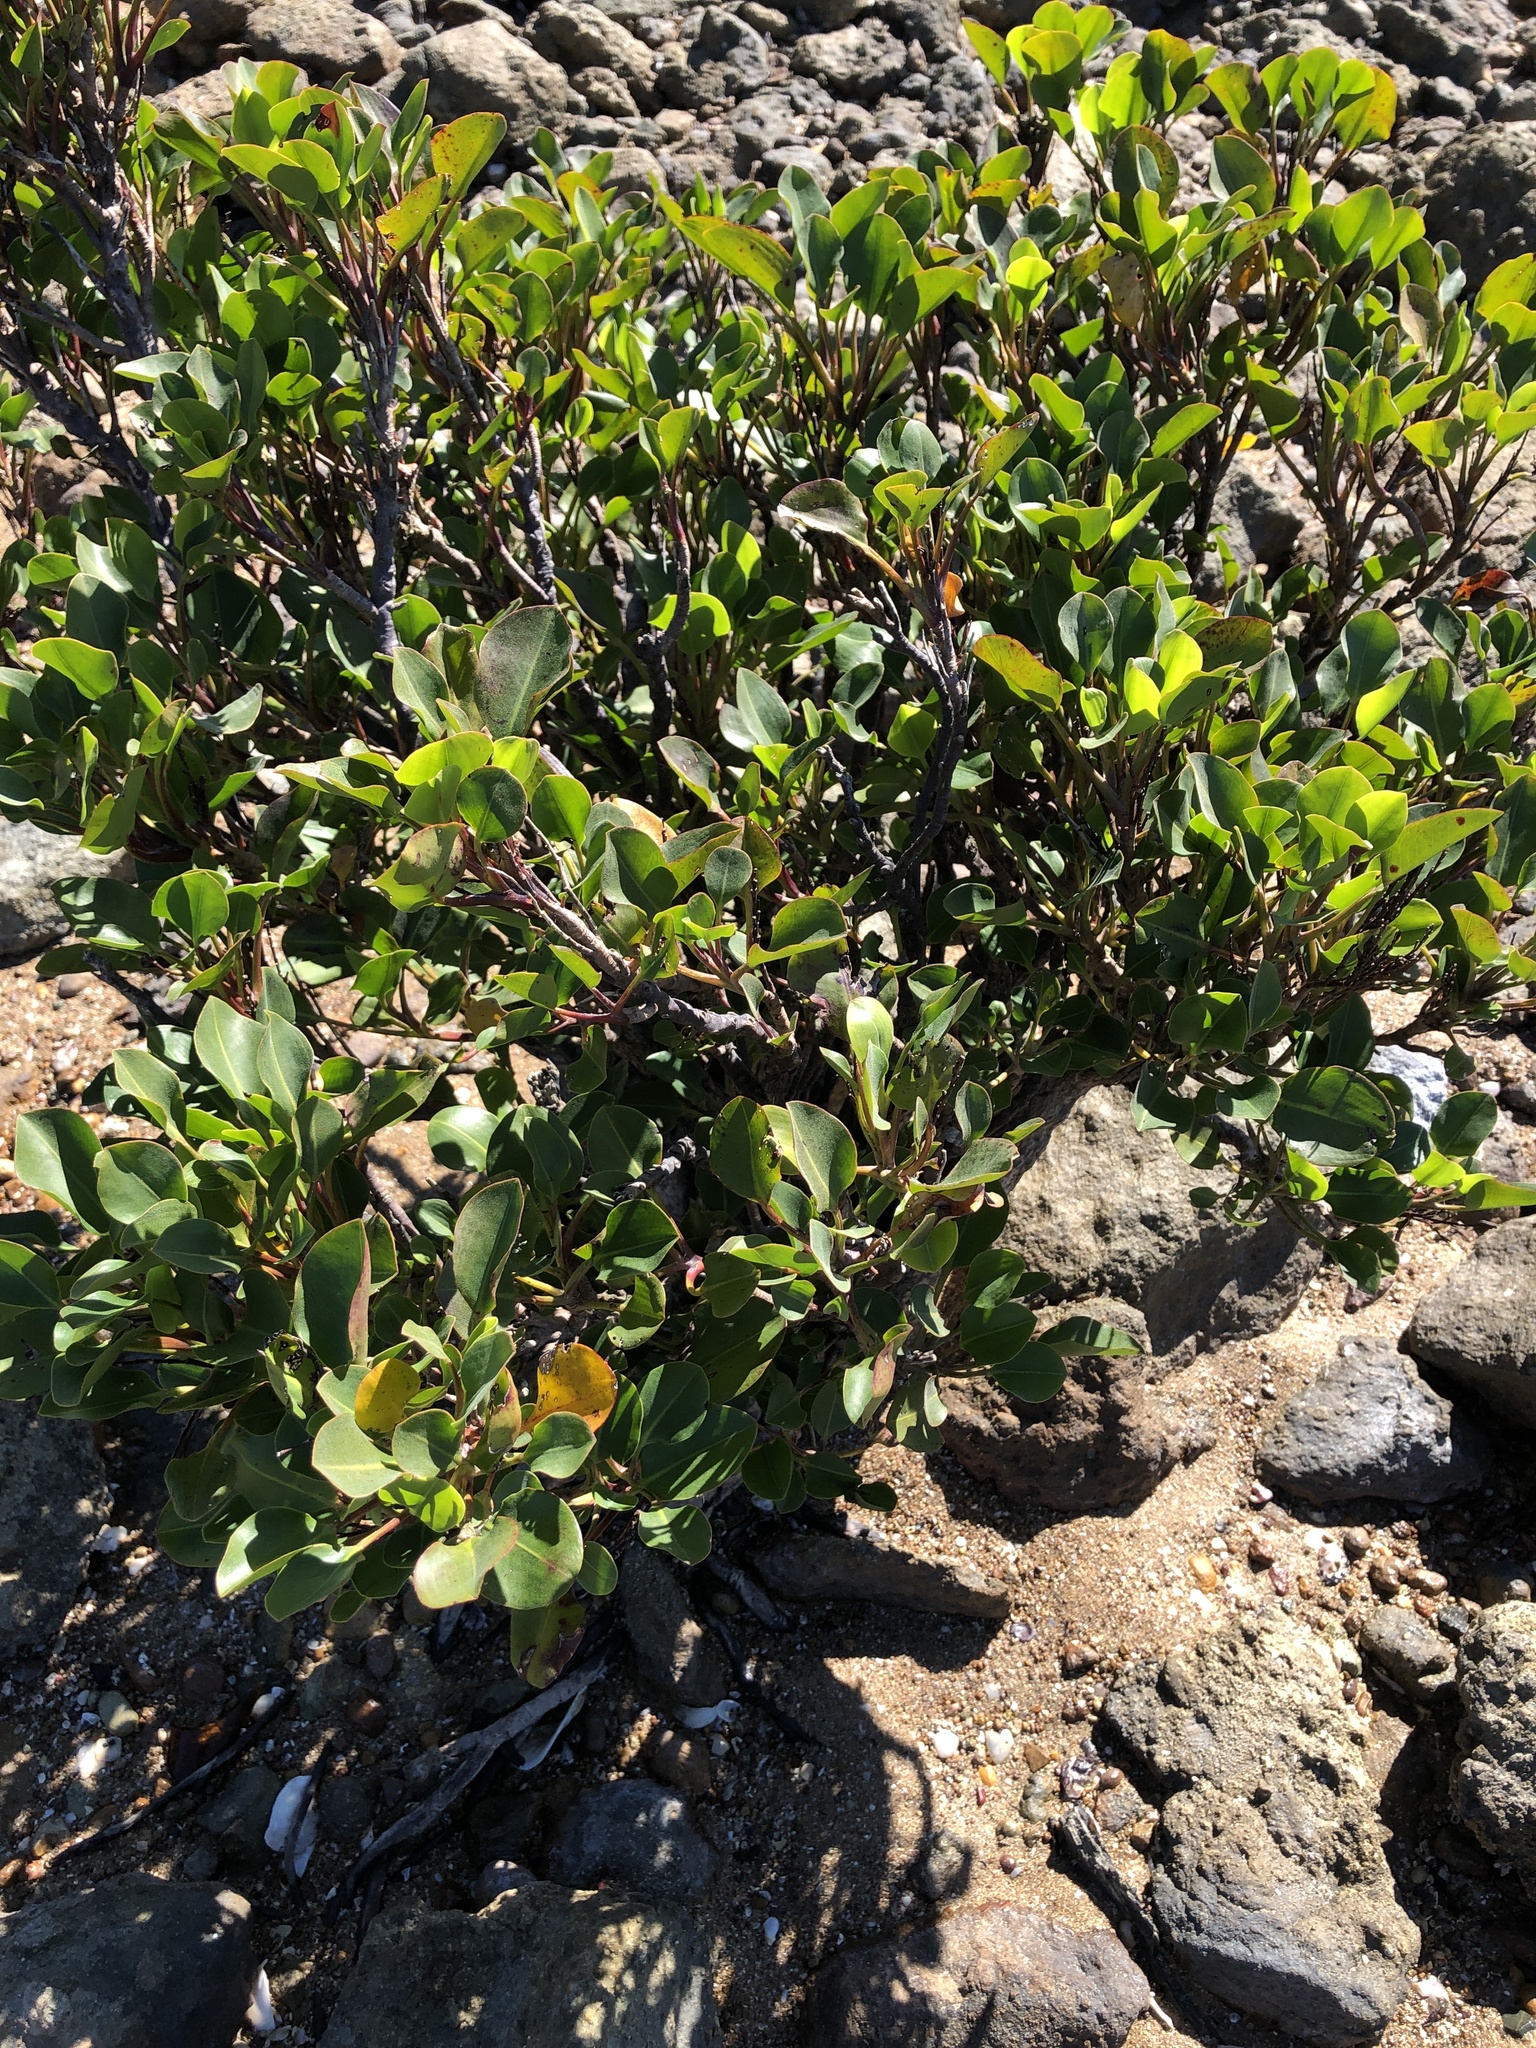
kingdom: Plantae
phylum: Tracheophyta
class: Magnoliopsida
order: Caryophyllales
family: Plumbaginaceae
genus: Aegialitis
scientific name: Aegialitis annulata
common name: Club mangrove
